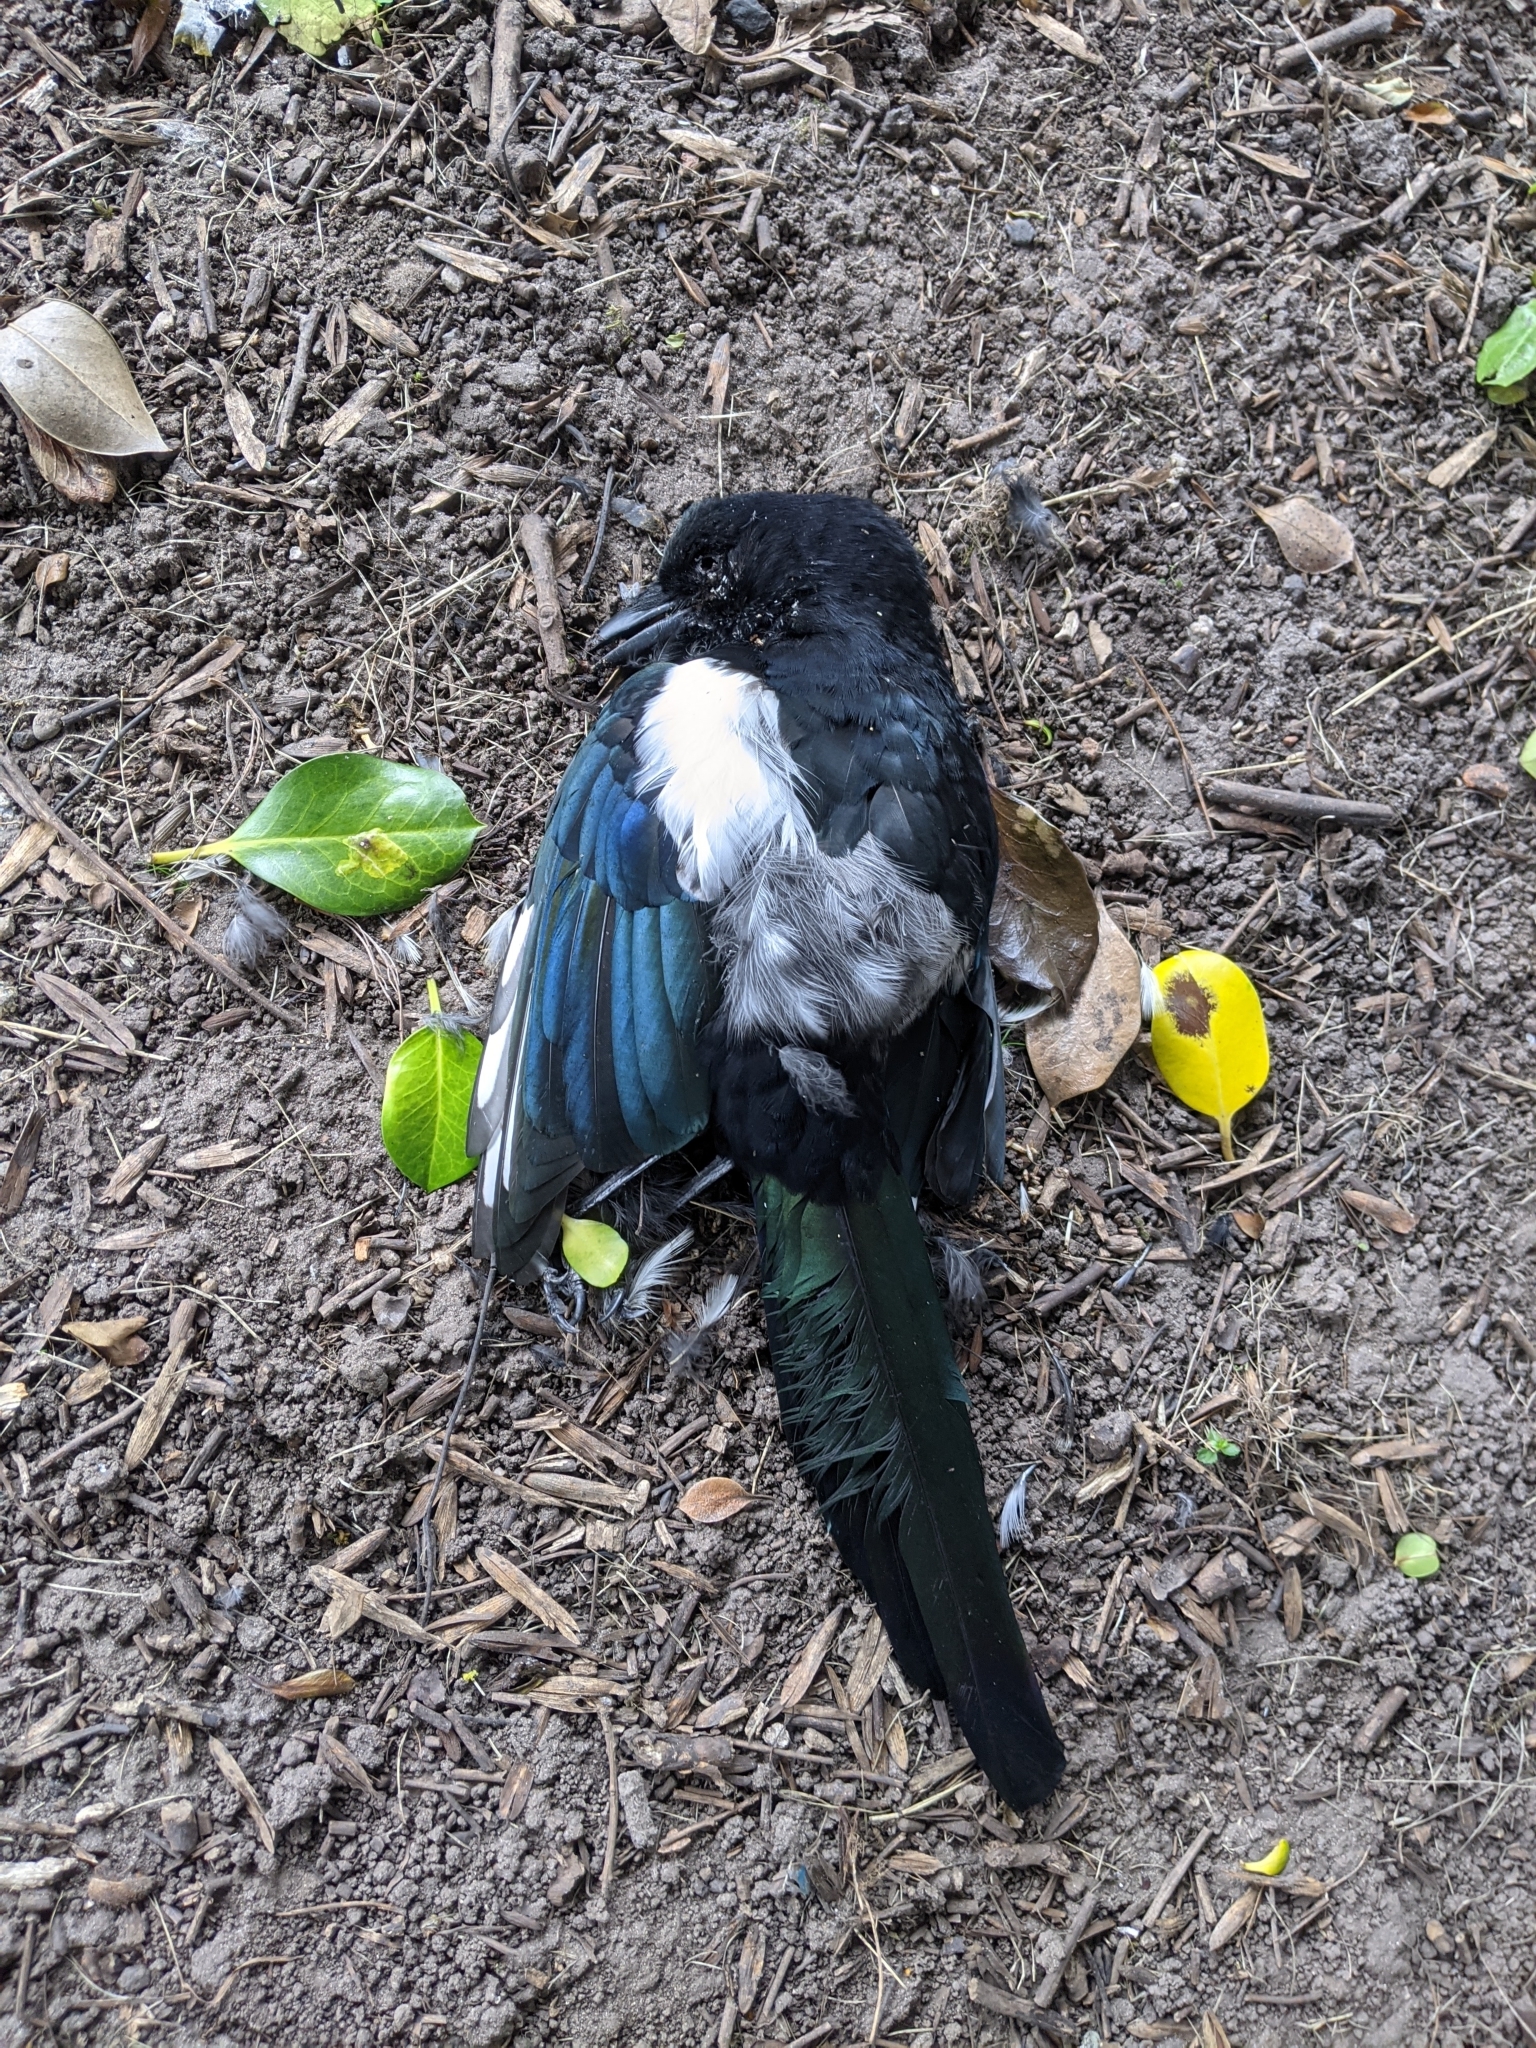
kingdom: Animalia
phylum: Chordata
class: Aves
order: Passeriformes
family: Corvidae
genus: Pica
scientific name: Pica pica
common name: Eurasian magpie
